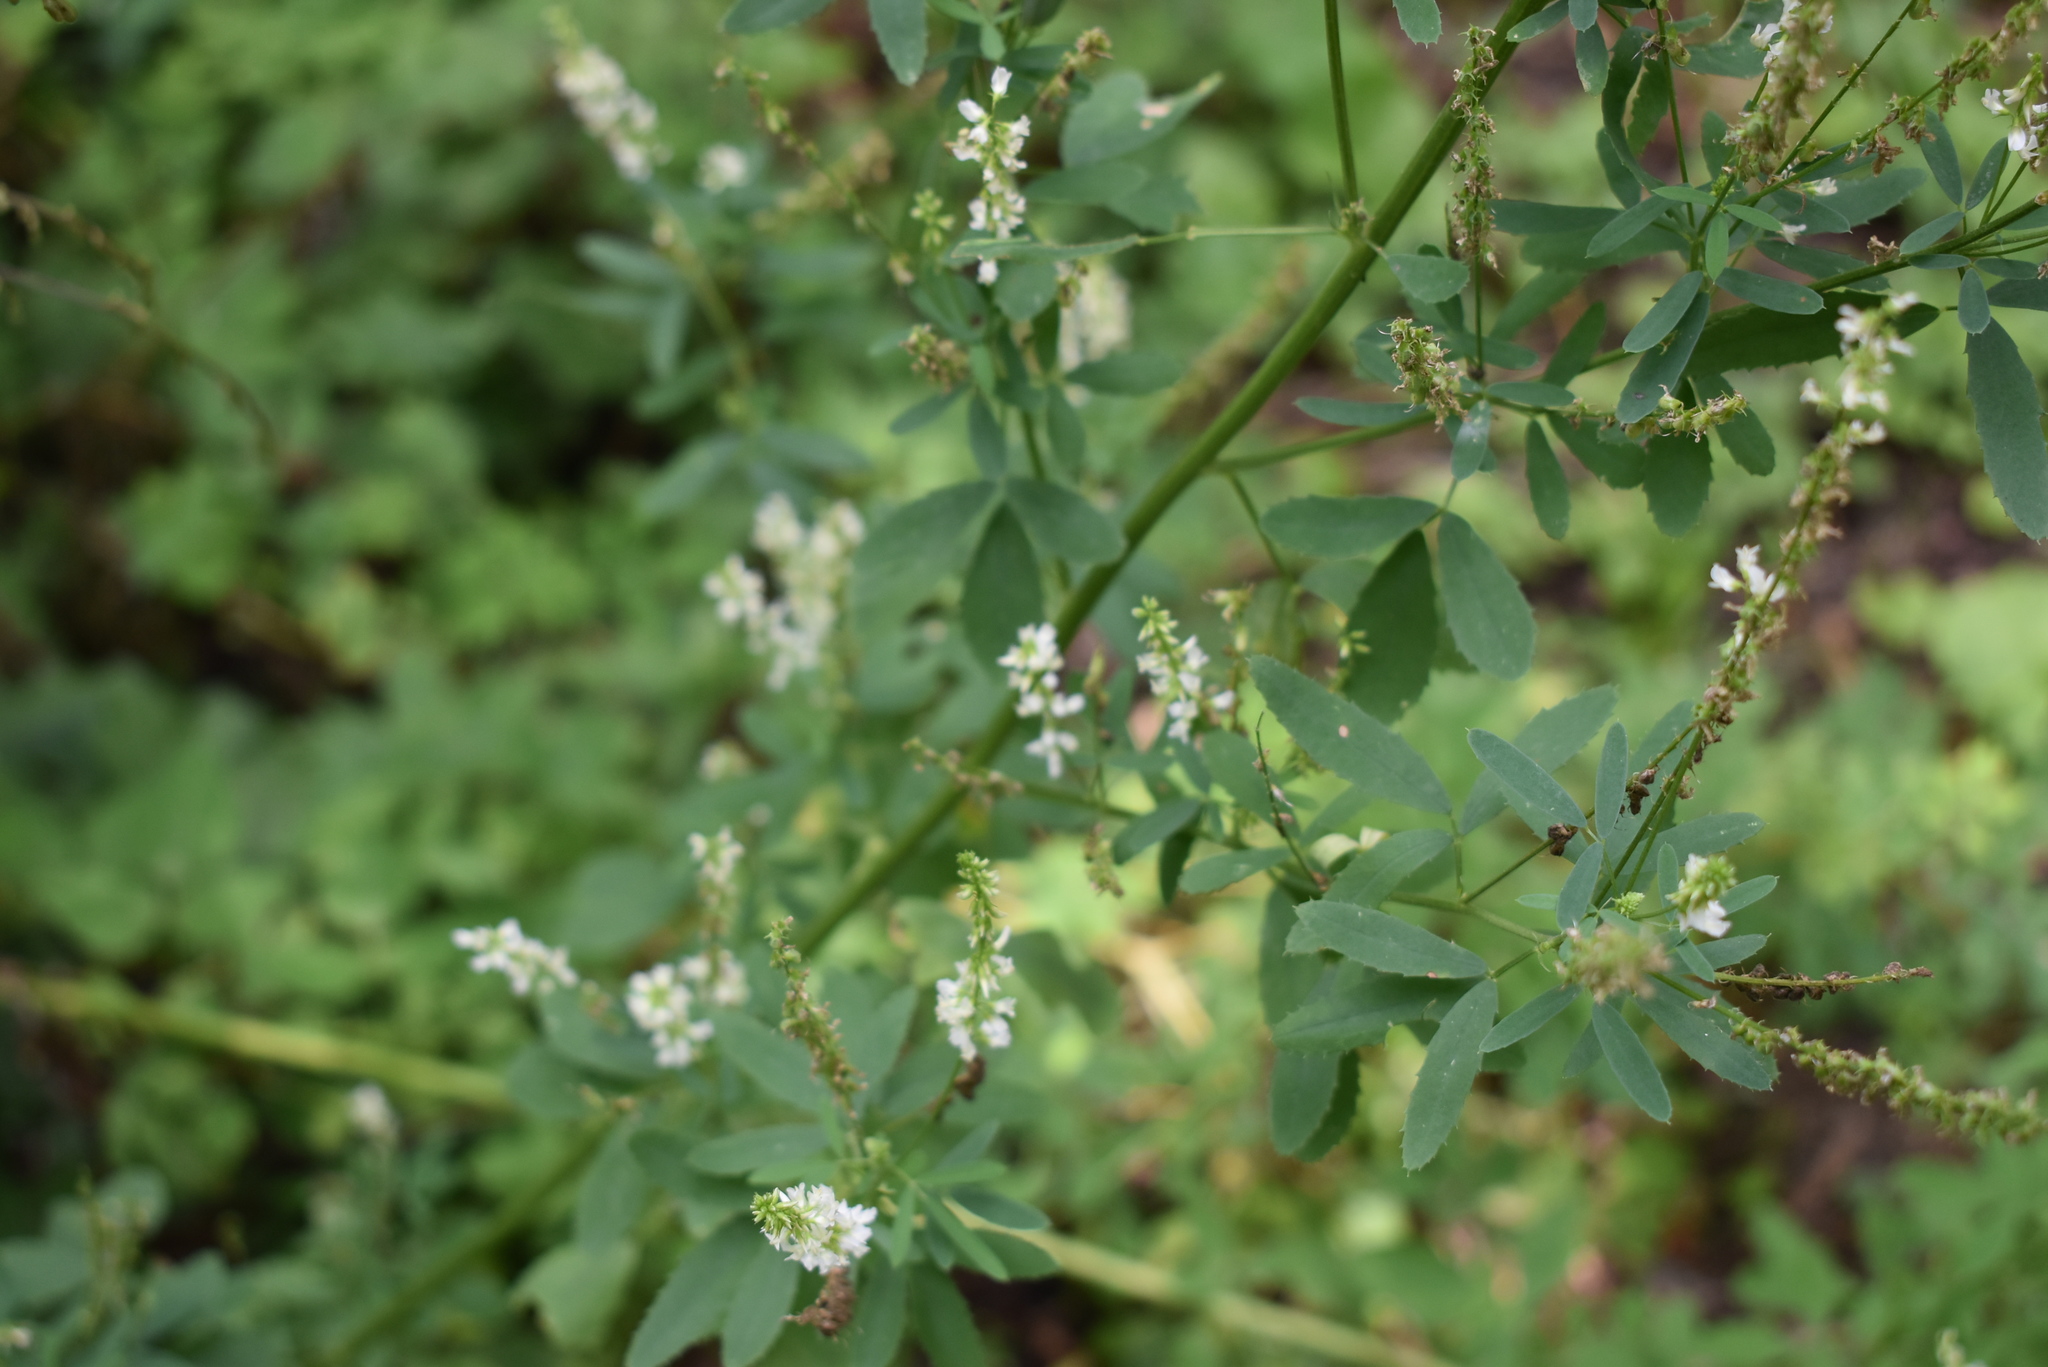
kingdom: Plantae
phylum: Tracheophyta
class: Magnoliopsida
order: Fabales
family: Fabaceae
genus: Melilotus
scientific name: Melilotus albus
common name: White melilot
